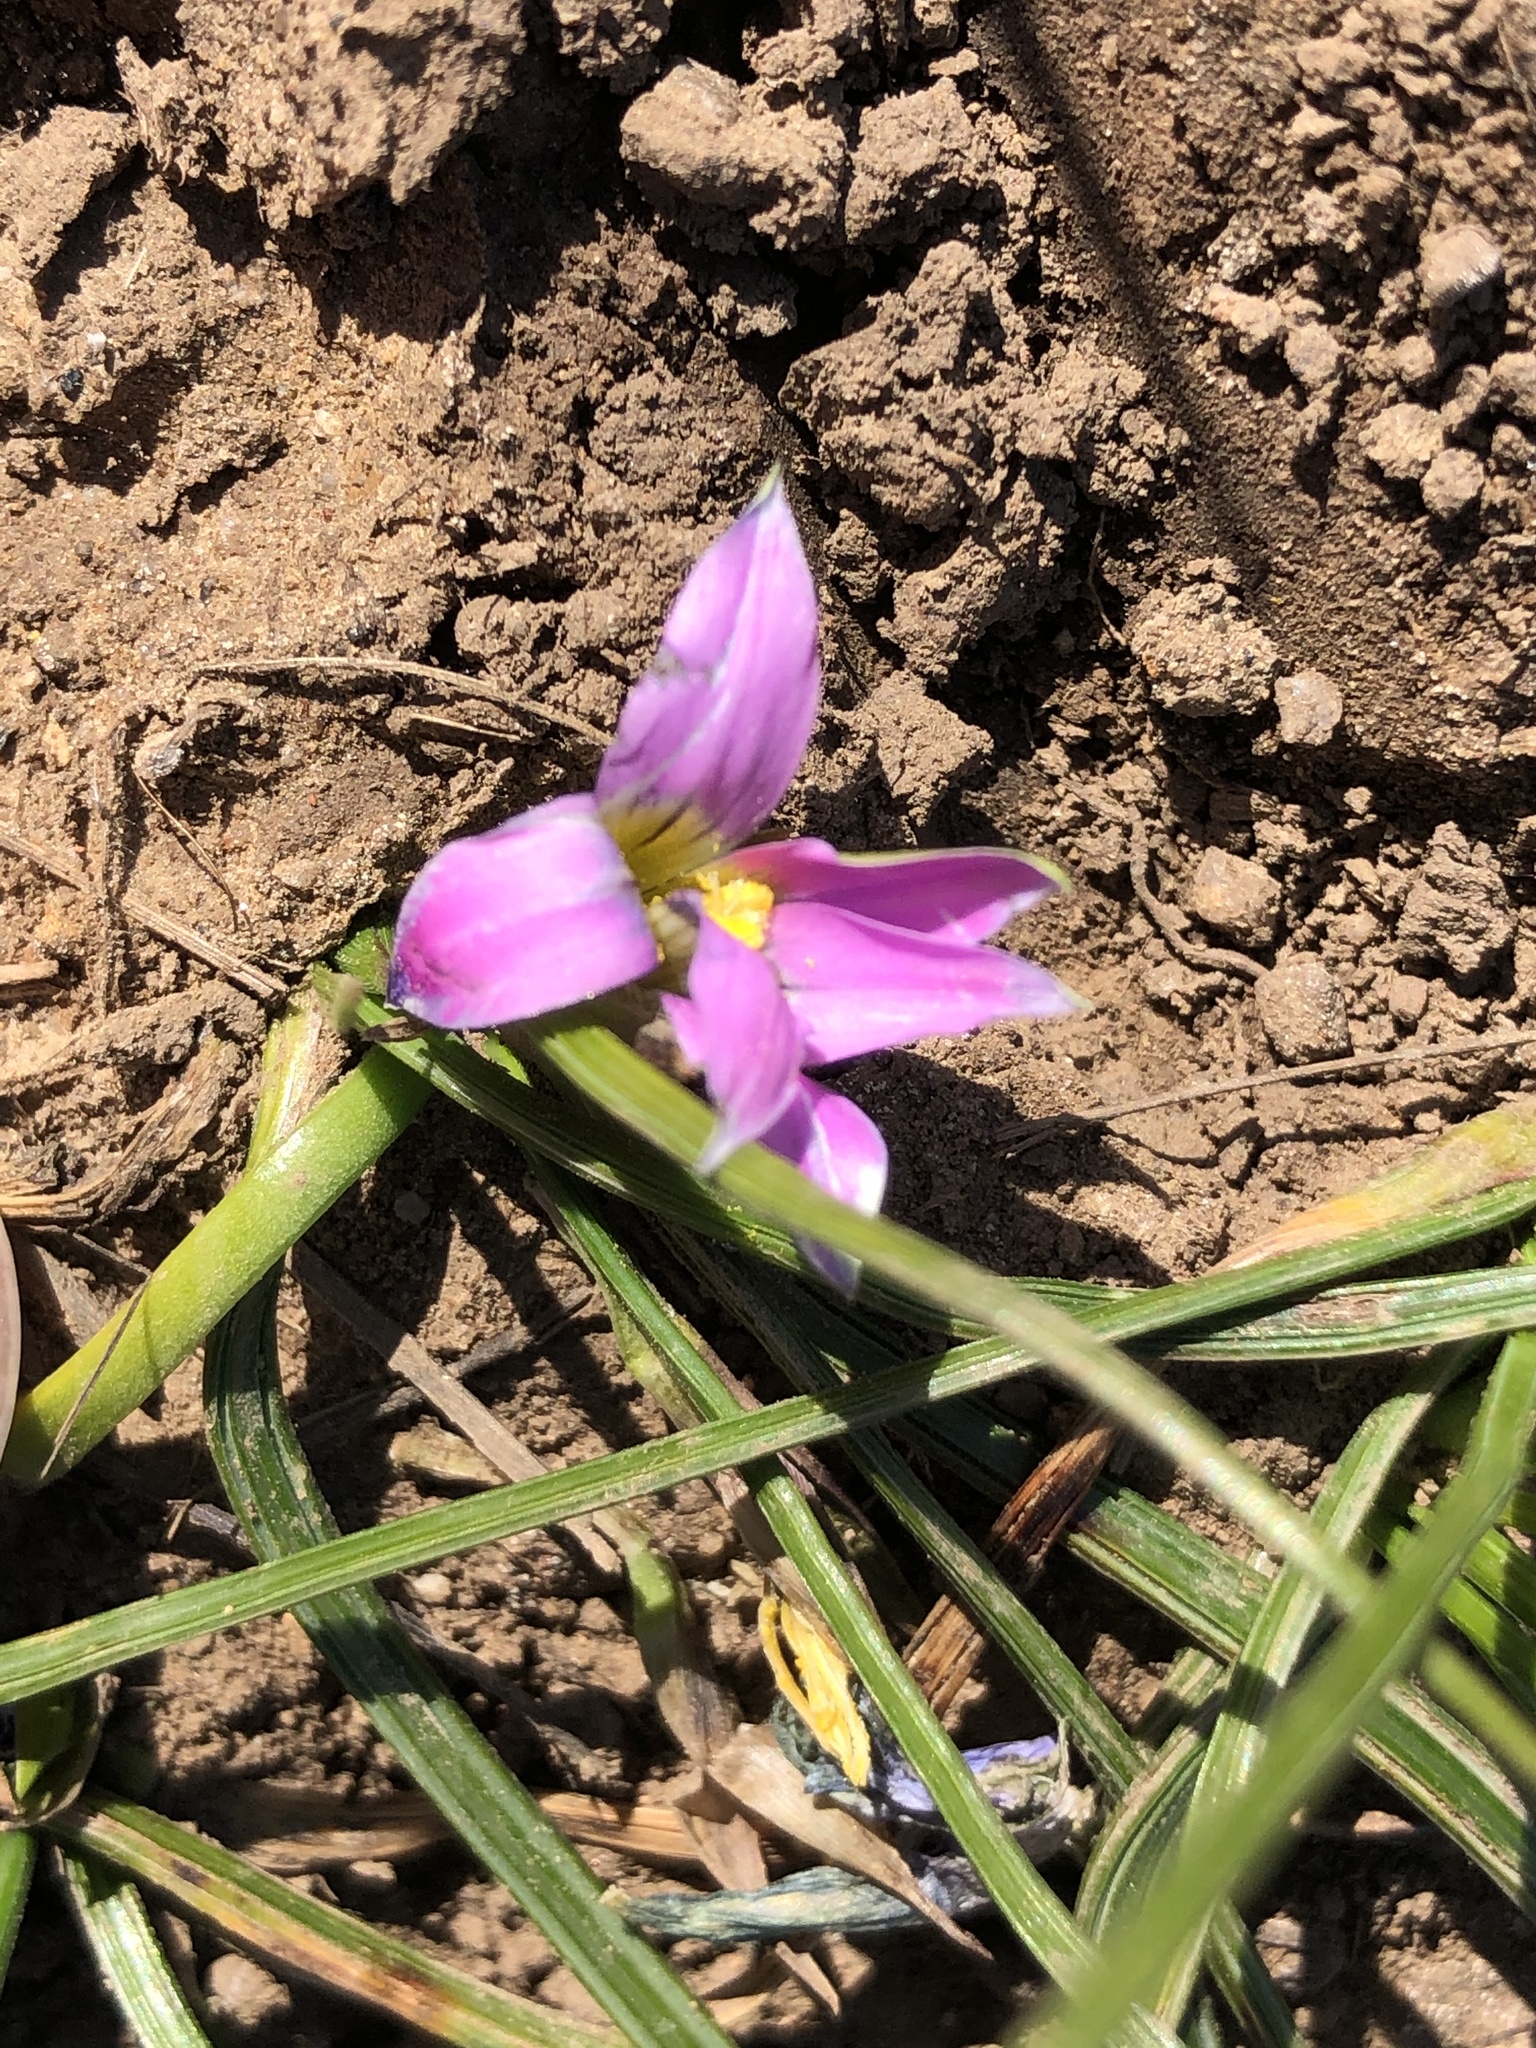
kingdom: Plantae
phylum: Tracheophyta
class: Liliopsida
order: Asparagales
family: Iridaceae
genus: Romulea
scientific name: Romulea rosea
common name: Oniongrass
